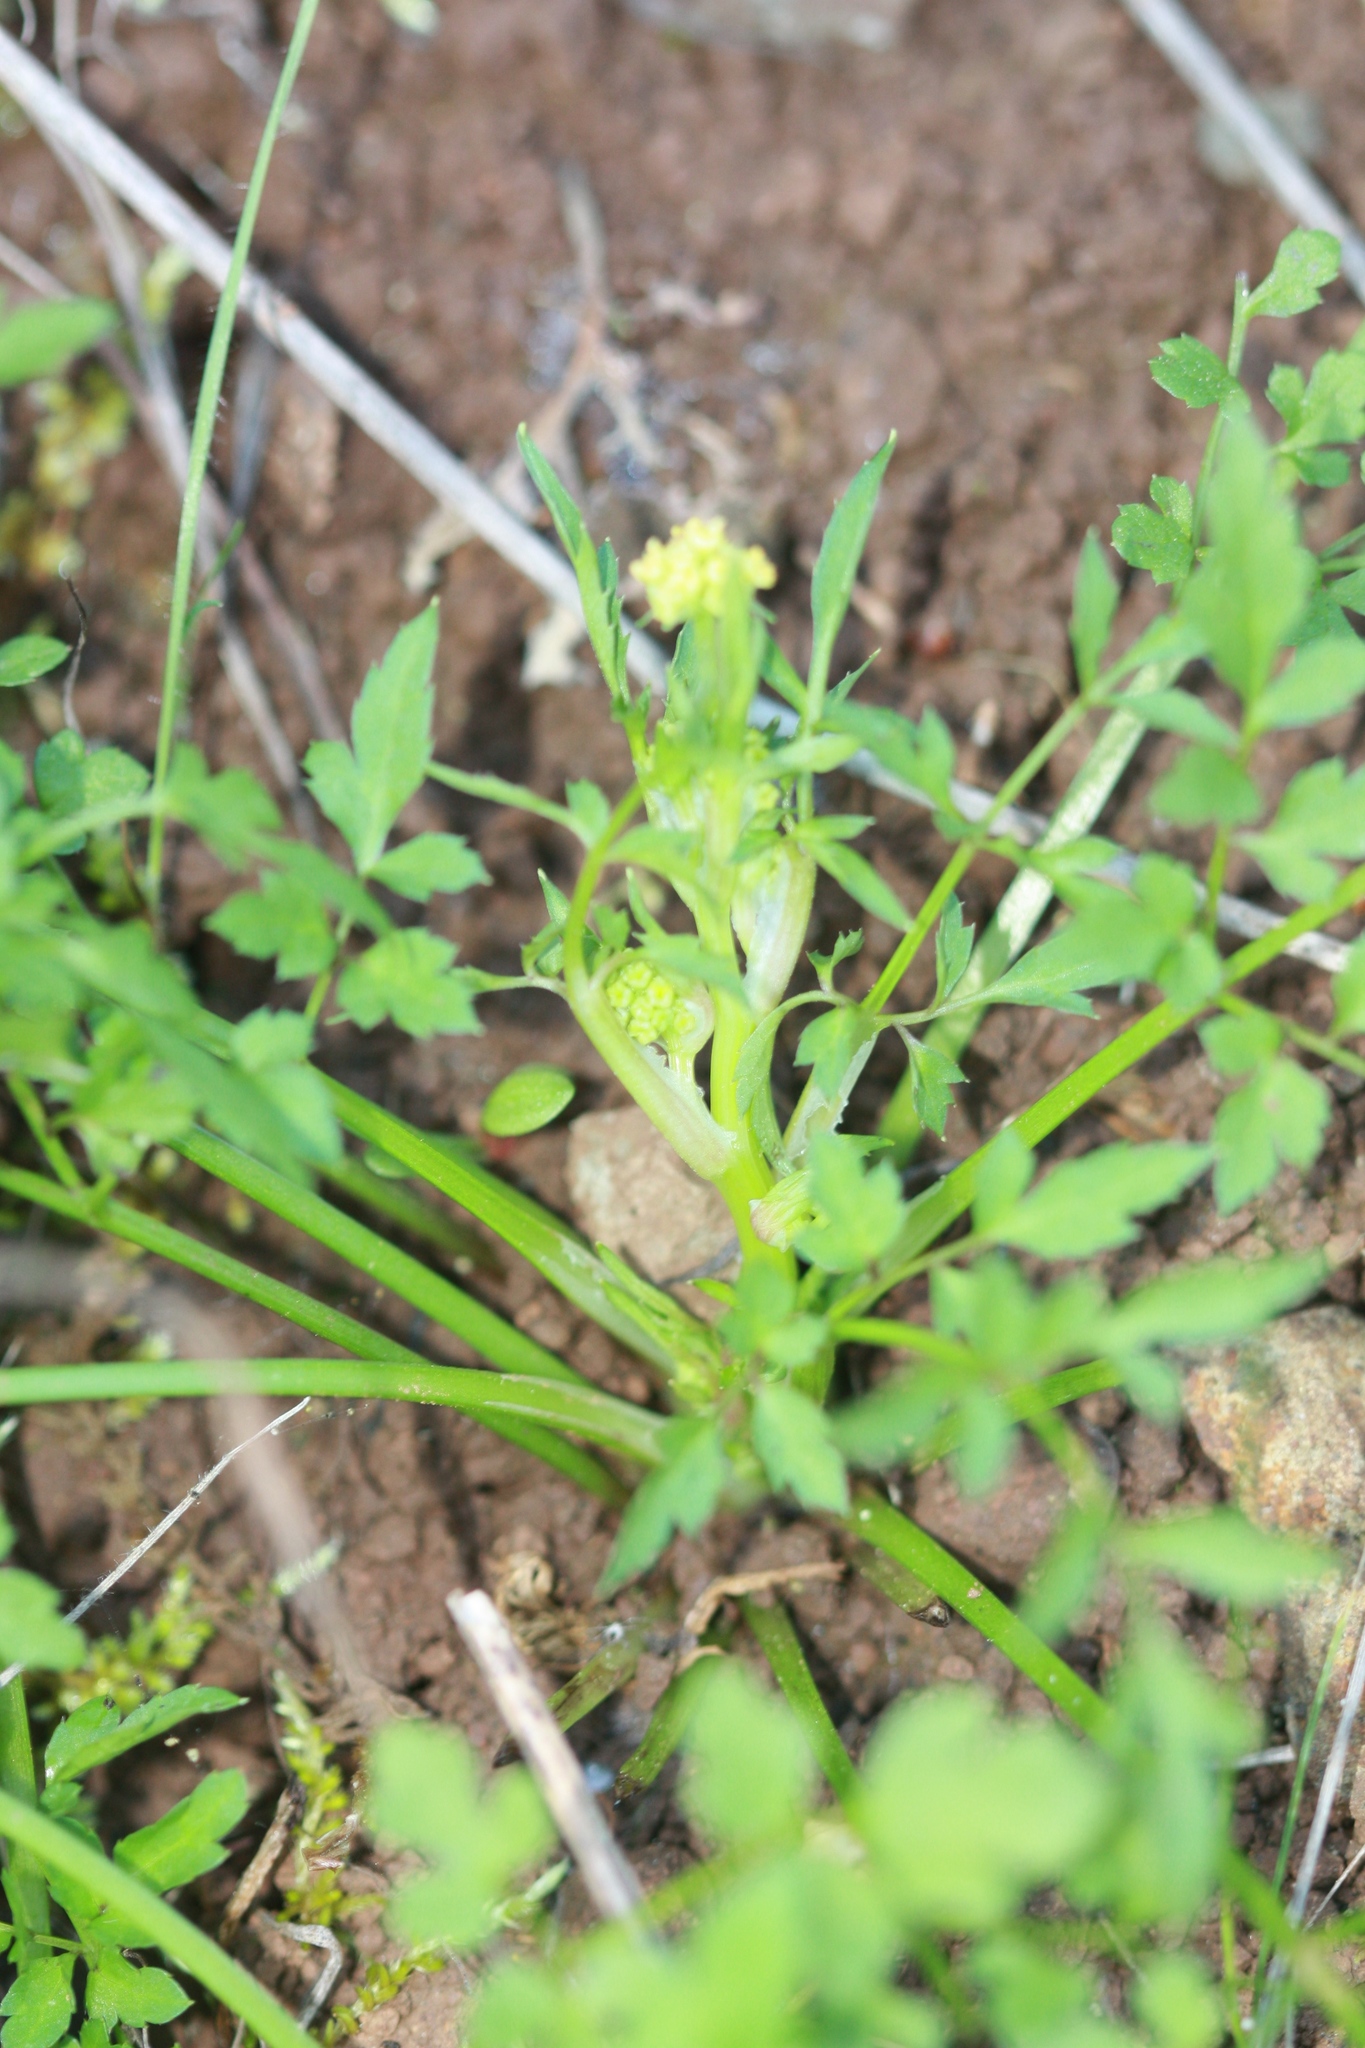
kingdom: Plantae
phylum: Tracheophyta
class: Magnoliopsida
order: Apiales
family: Apiaceae
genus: Sanicula
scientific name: Sanicula bipinnata
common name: Poison sanicle
